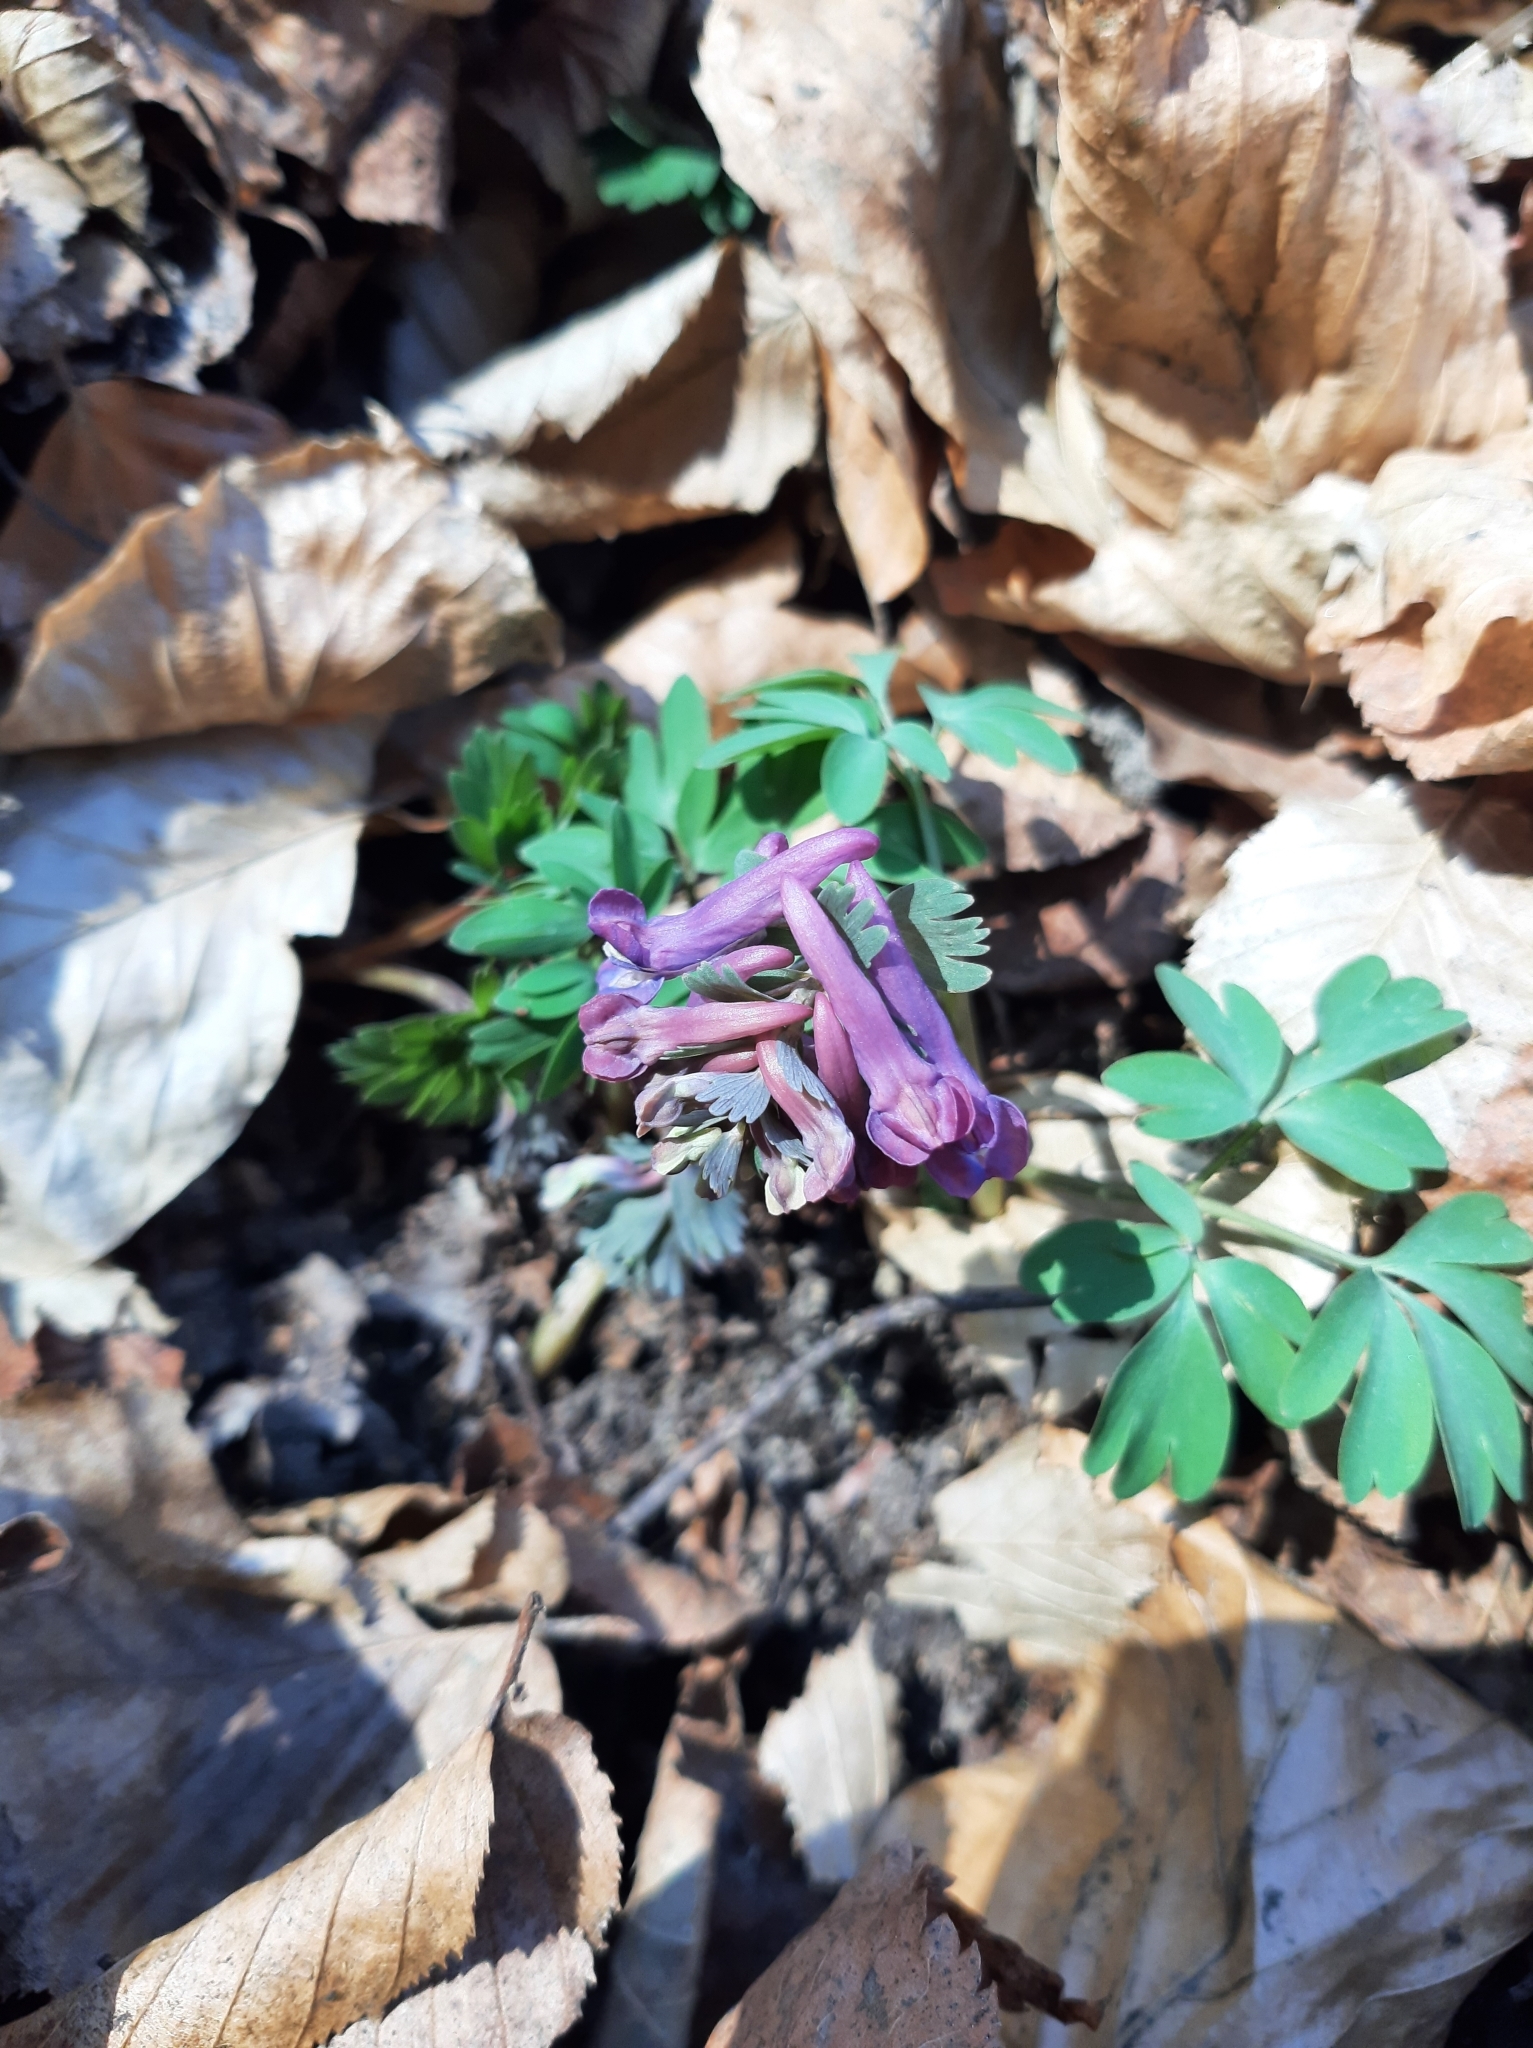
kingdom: Plantae
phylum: Tracheophyta
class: Magnoliopsida
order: Ranunculales
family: Papaveraceae
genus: Corydalis
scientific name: Corydalis solida
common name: Bird-in-a-bush
